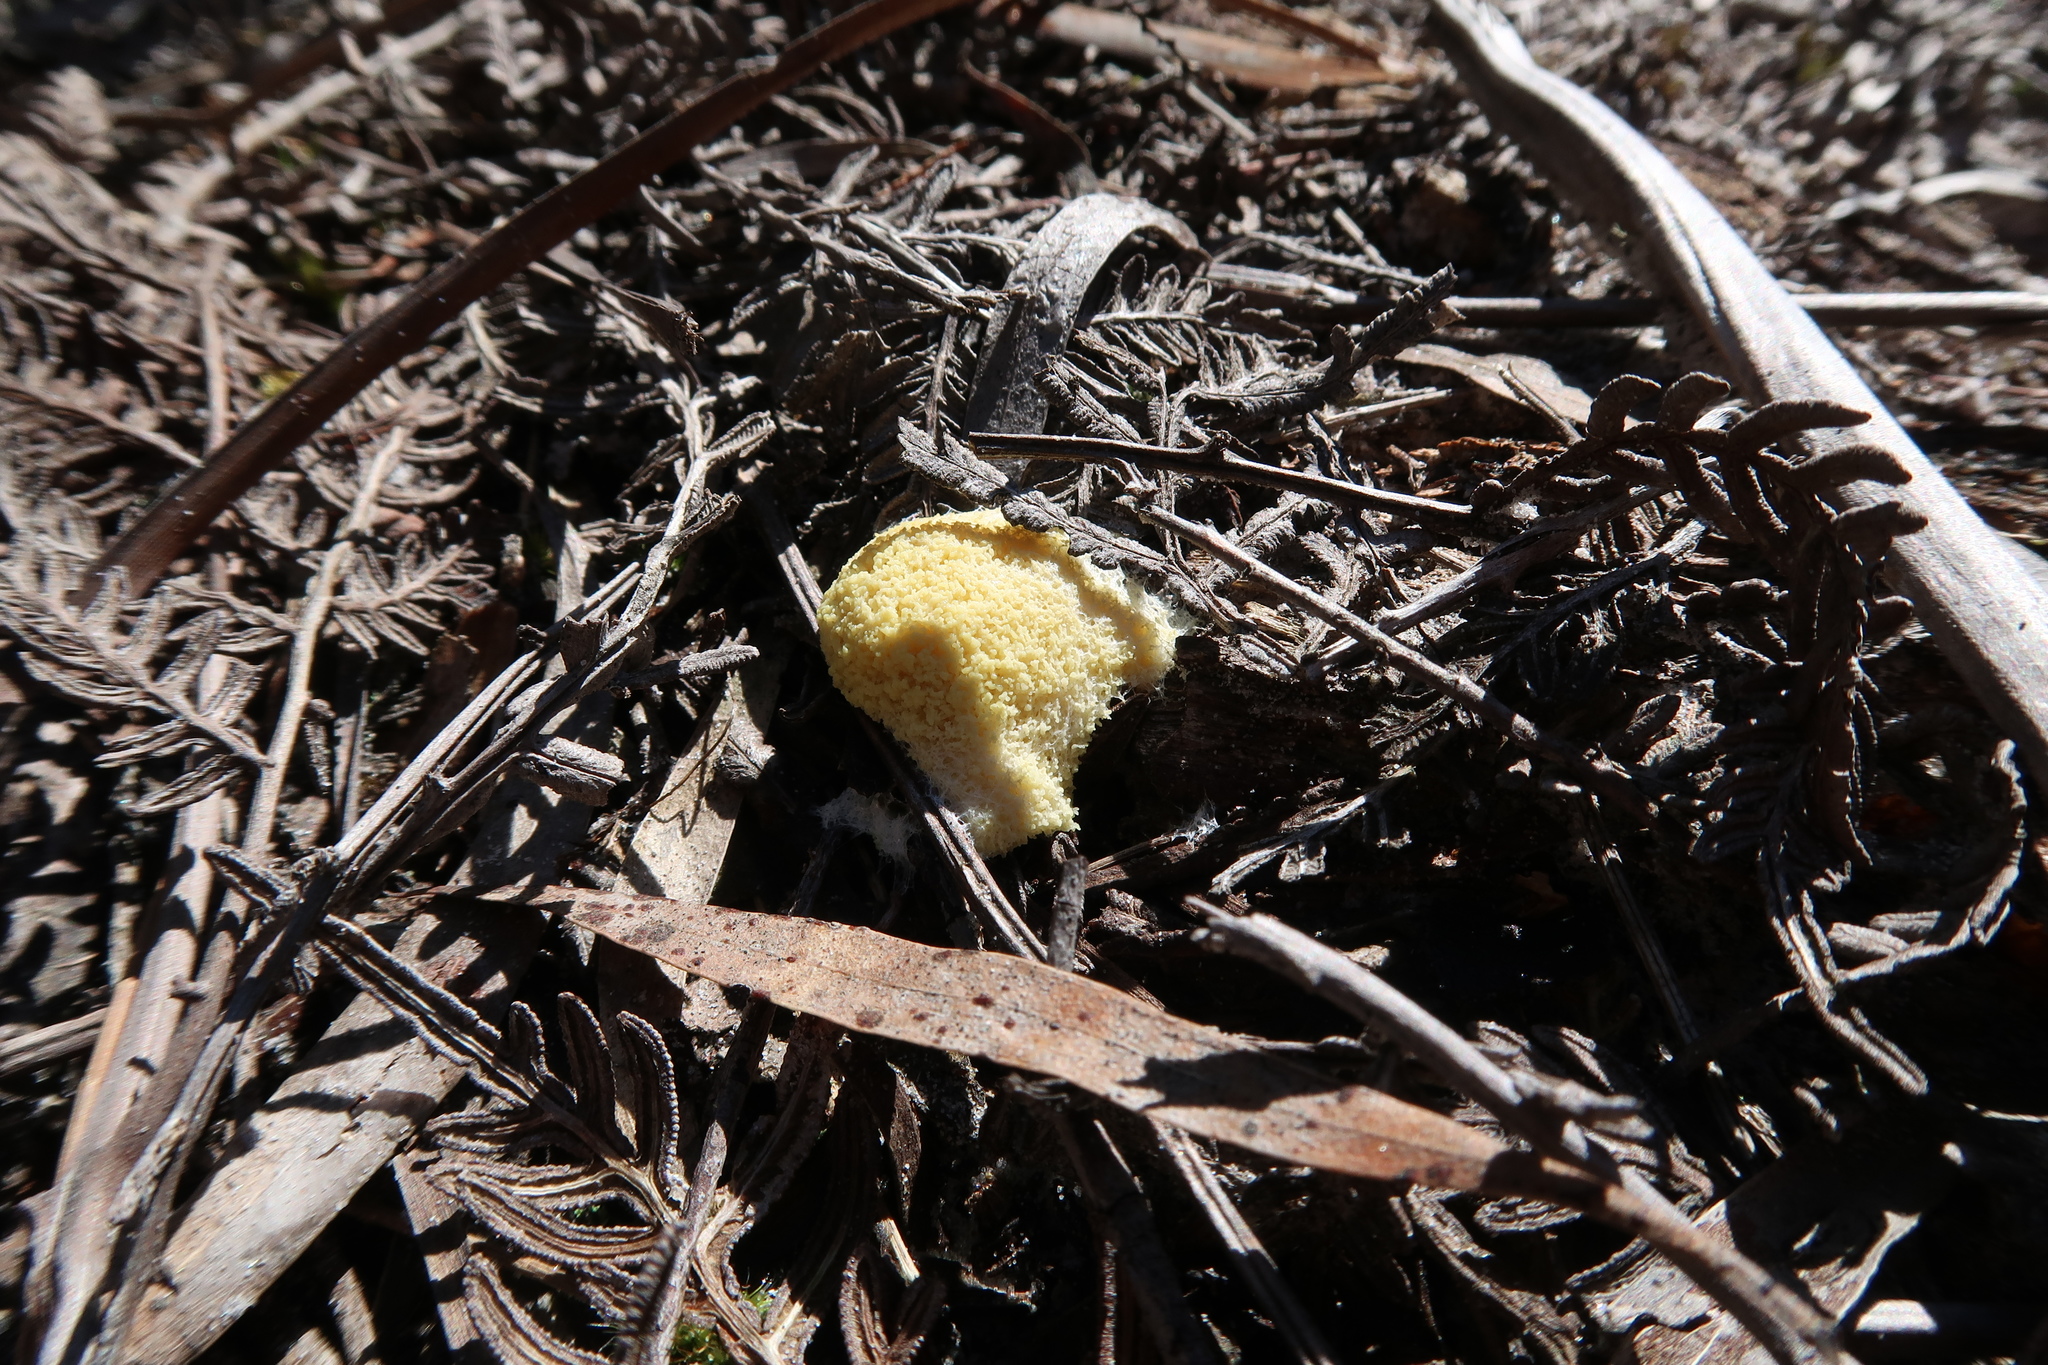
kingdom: Protozoa
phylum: Mycetozoa
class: Myxomycetes
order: Physarales
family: Physaraceae
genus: Fuligo
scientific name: Fuligo septica
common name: Dog vomit slime mold
